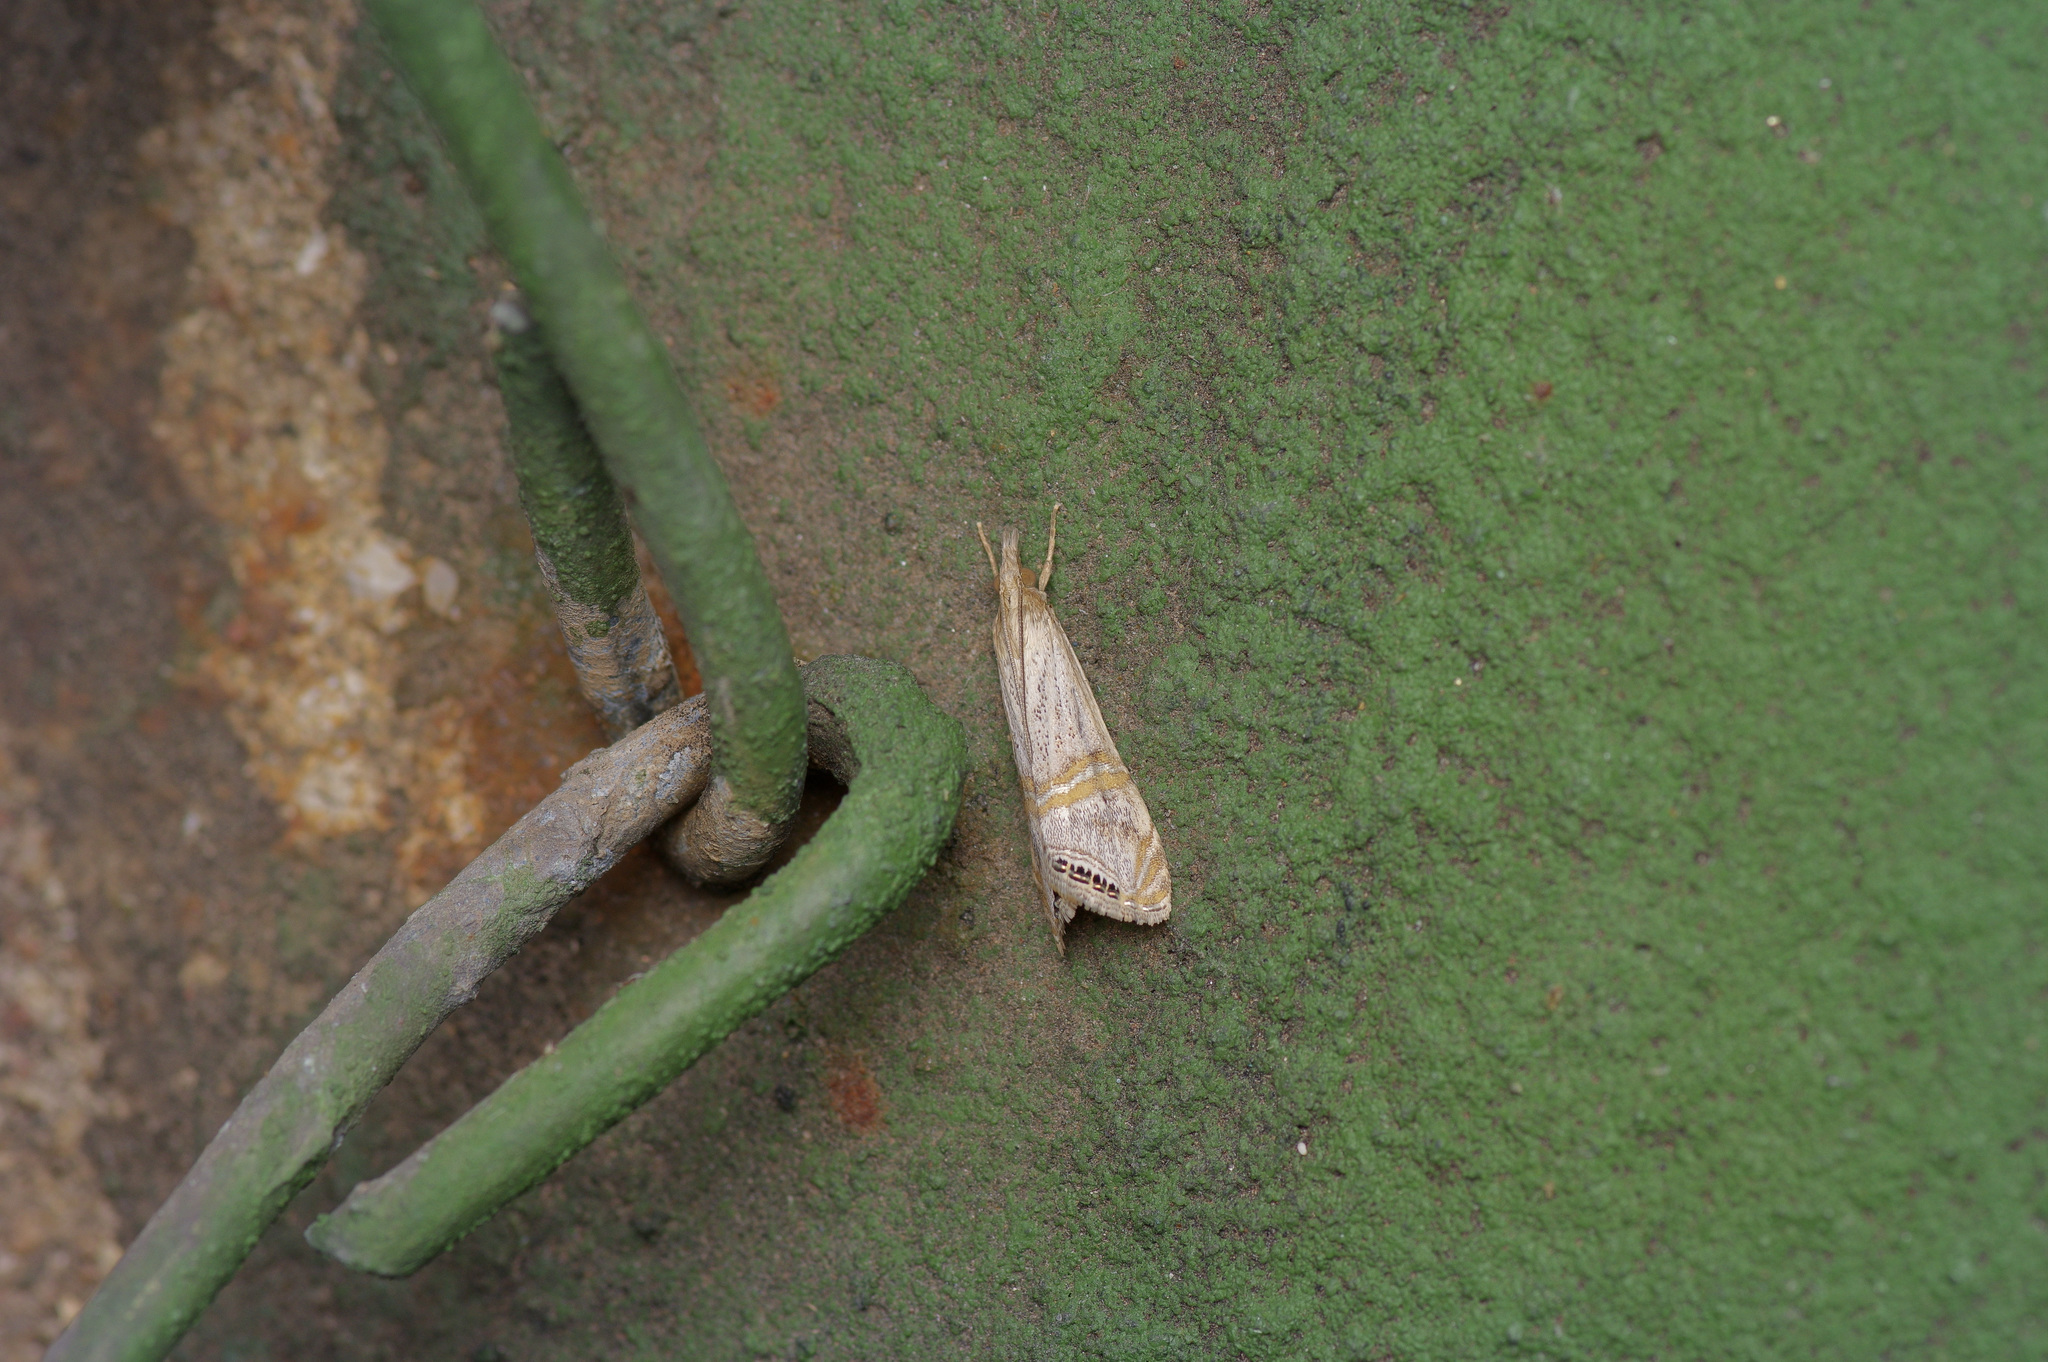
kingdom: Animalia
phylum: Arthropoda
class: Insecta
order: Lepidoptera
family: Crambidae
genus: Euchromius
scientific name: Euchromius ocellea
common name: Necklace veneer moth
